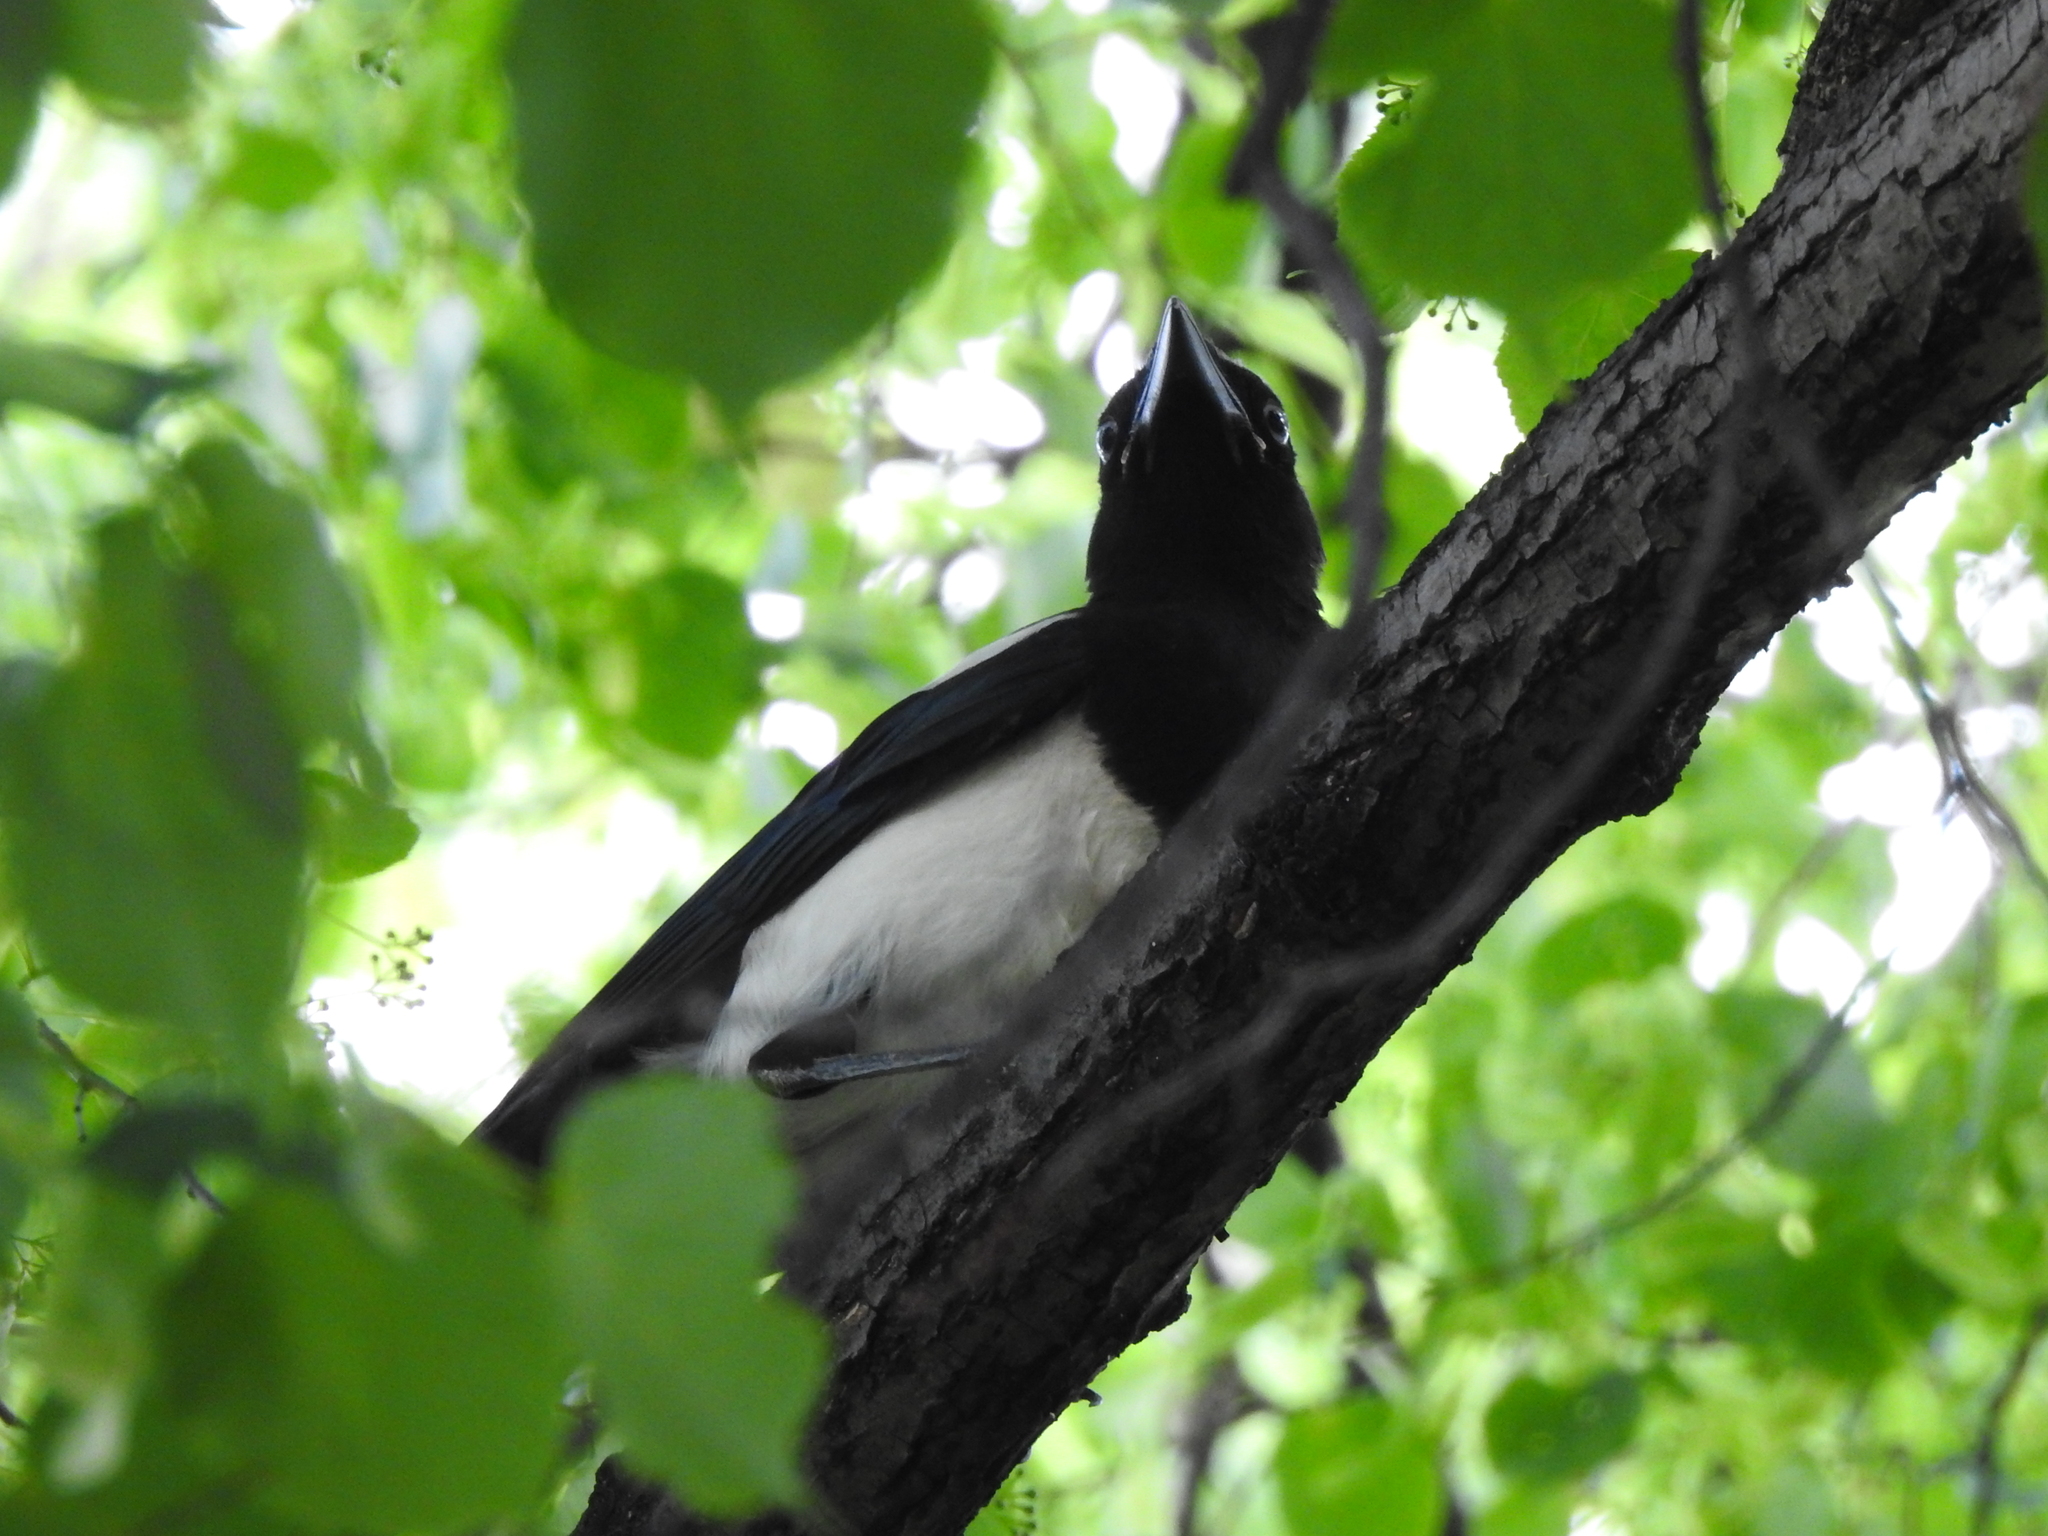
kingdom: Animalia
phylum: Chordata
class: Aves
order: Passeriformes
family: Corvidae
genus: Pica
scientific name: Pica pica
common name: Eurasian magpie
